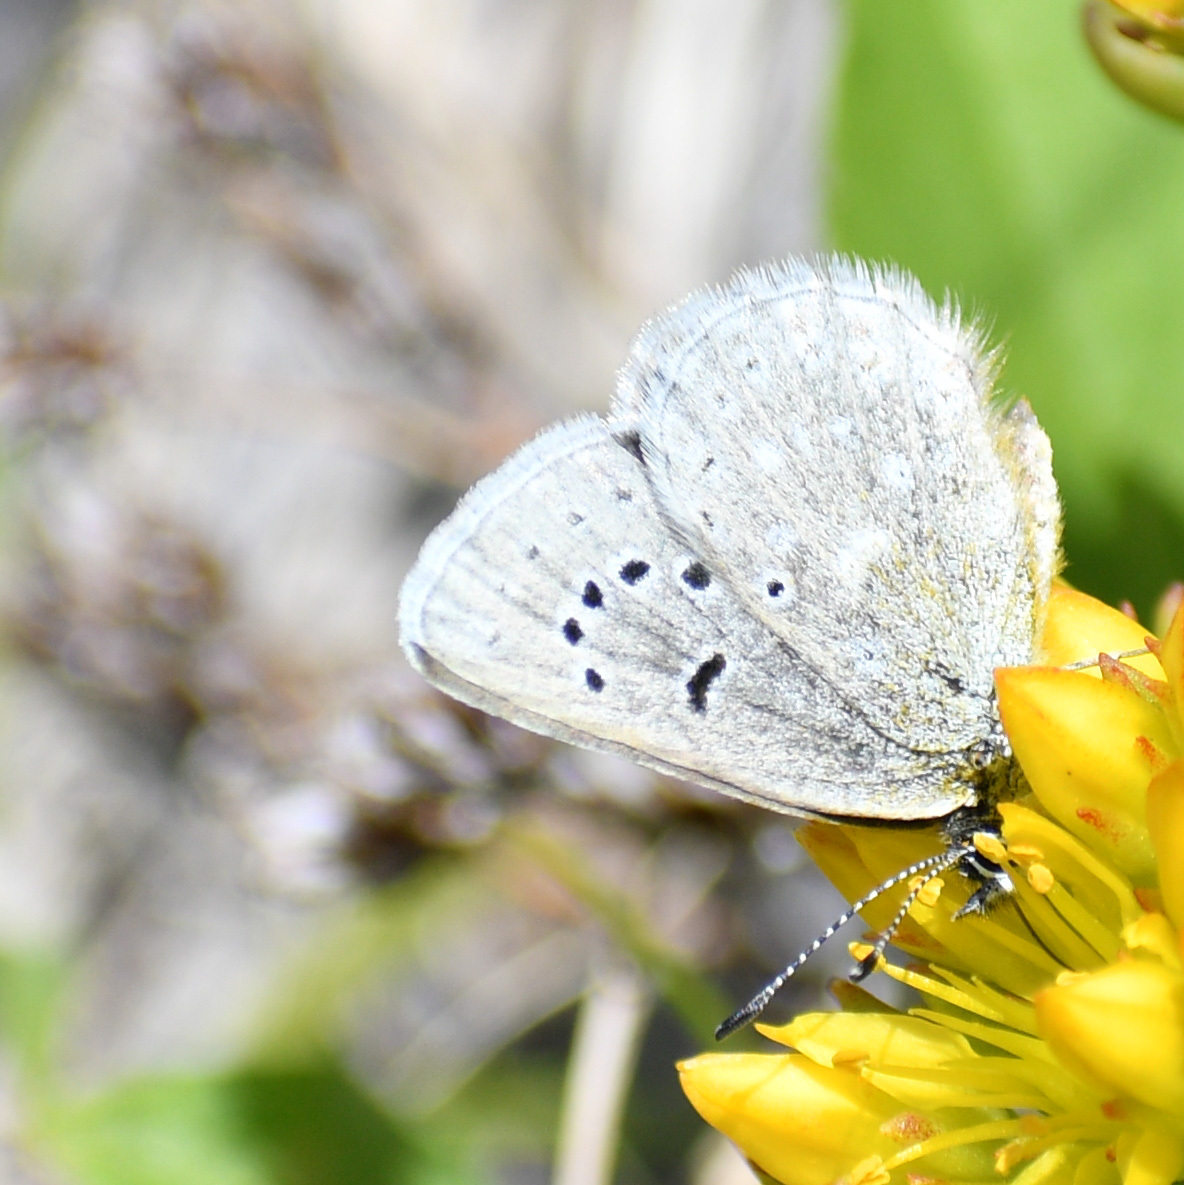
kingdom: Animalia
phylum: Arthropoda
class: Insecta
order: Lepidoptera
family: Lycaenidae
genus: Icaricia
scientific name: Icaricia icarioides
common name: Boisduval's blue
